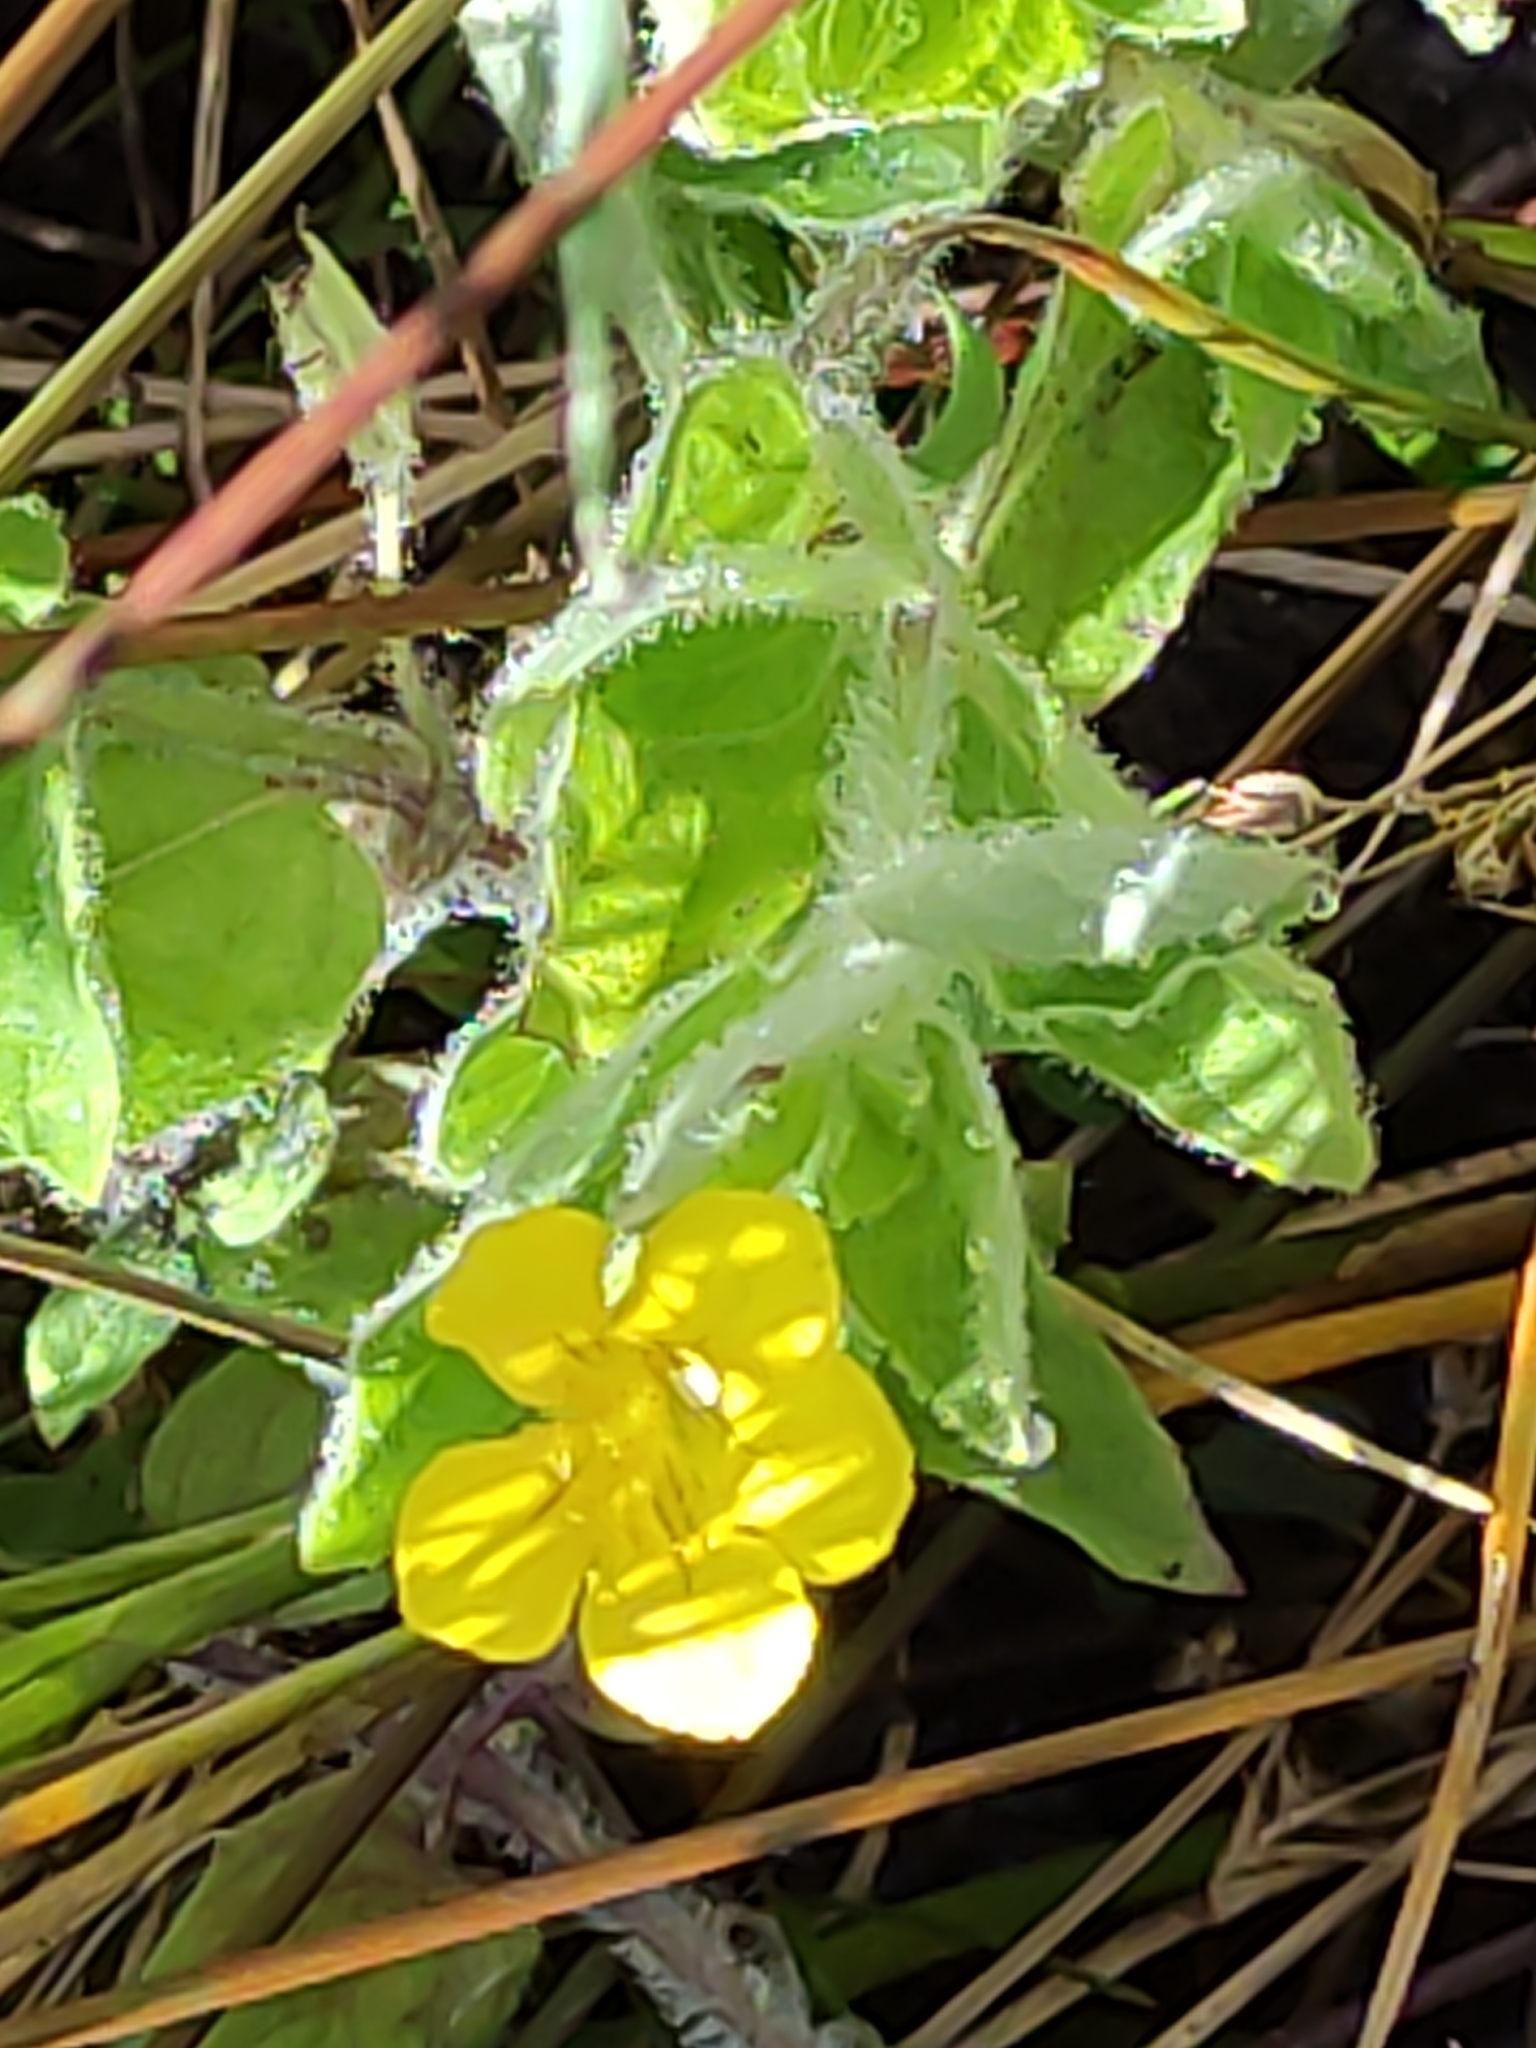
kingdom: Plantae
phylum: Tracheophyta
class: Magnoliopsida
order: Lamiales
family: Phrymaceae
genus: Erythranthe
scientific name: Erythranthe moschata
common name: Muskflower
